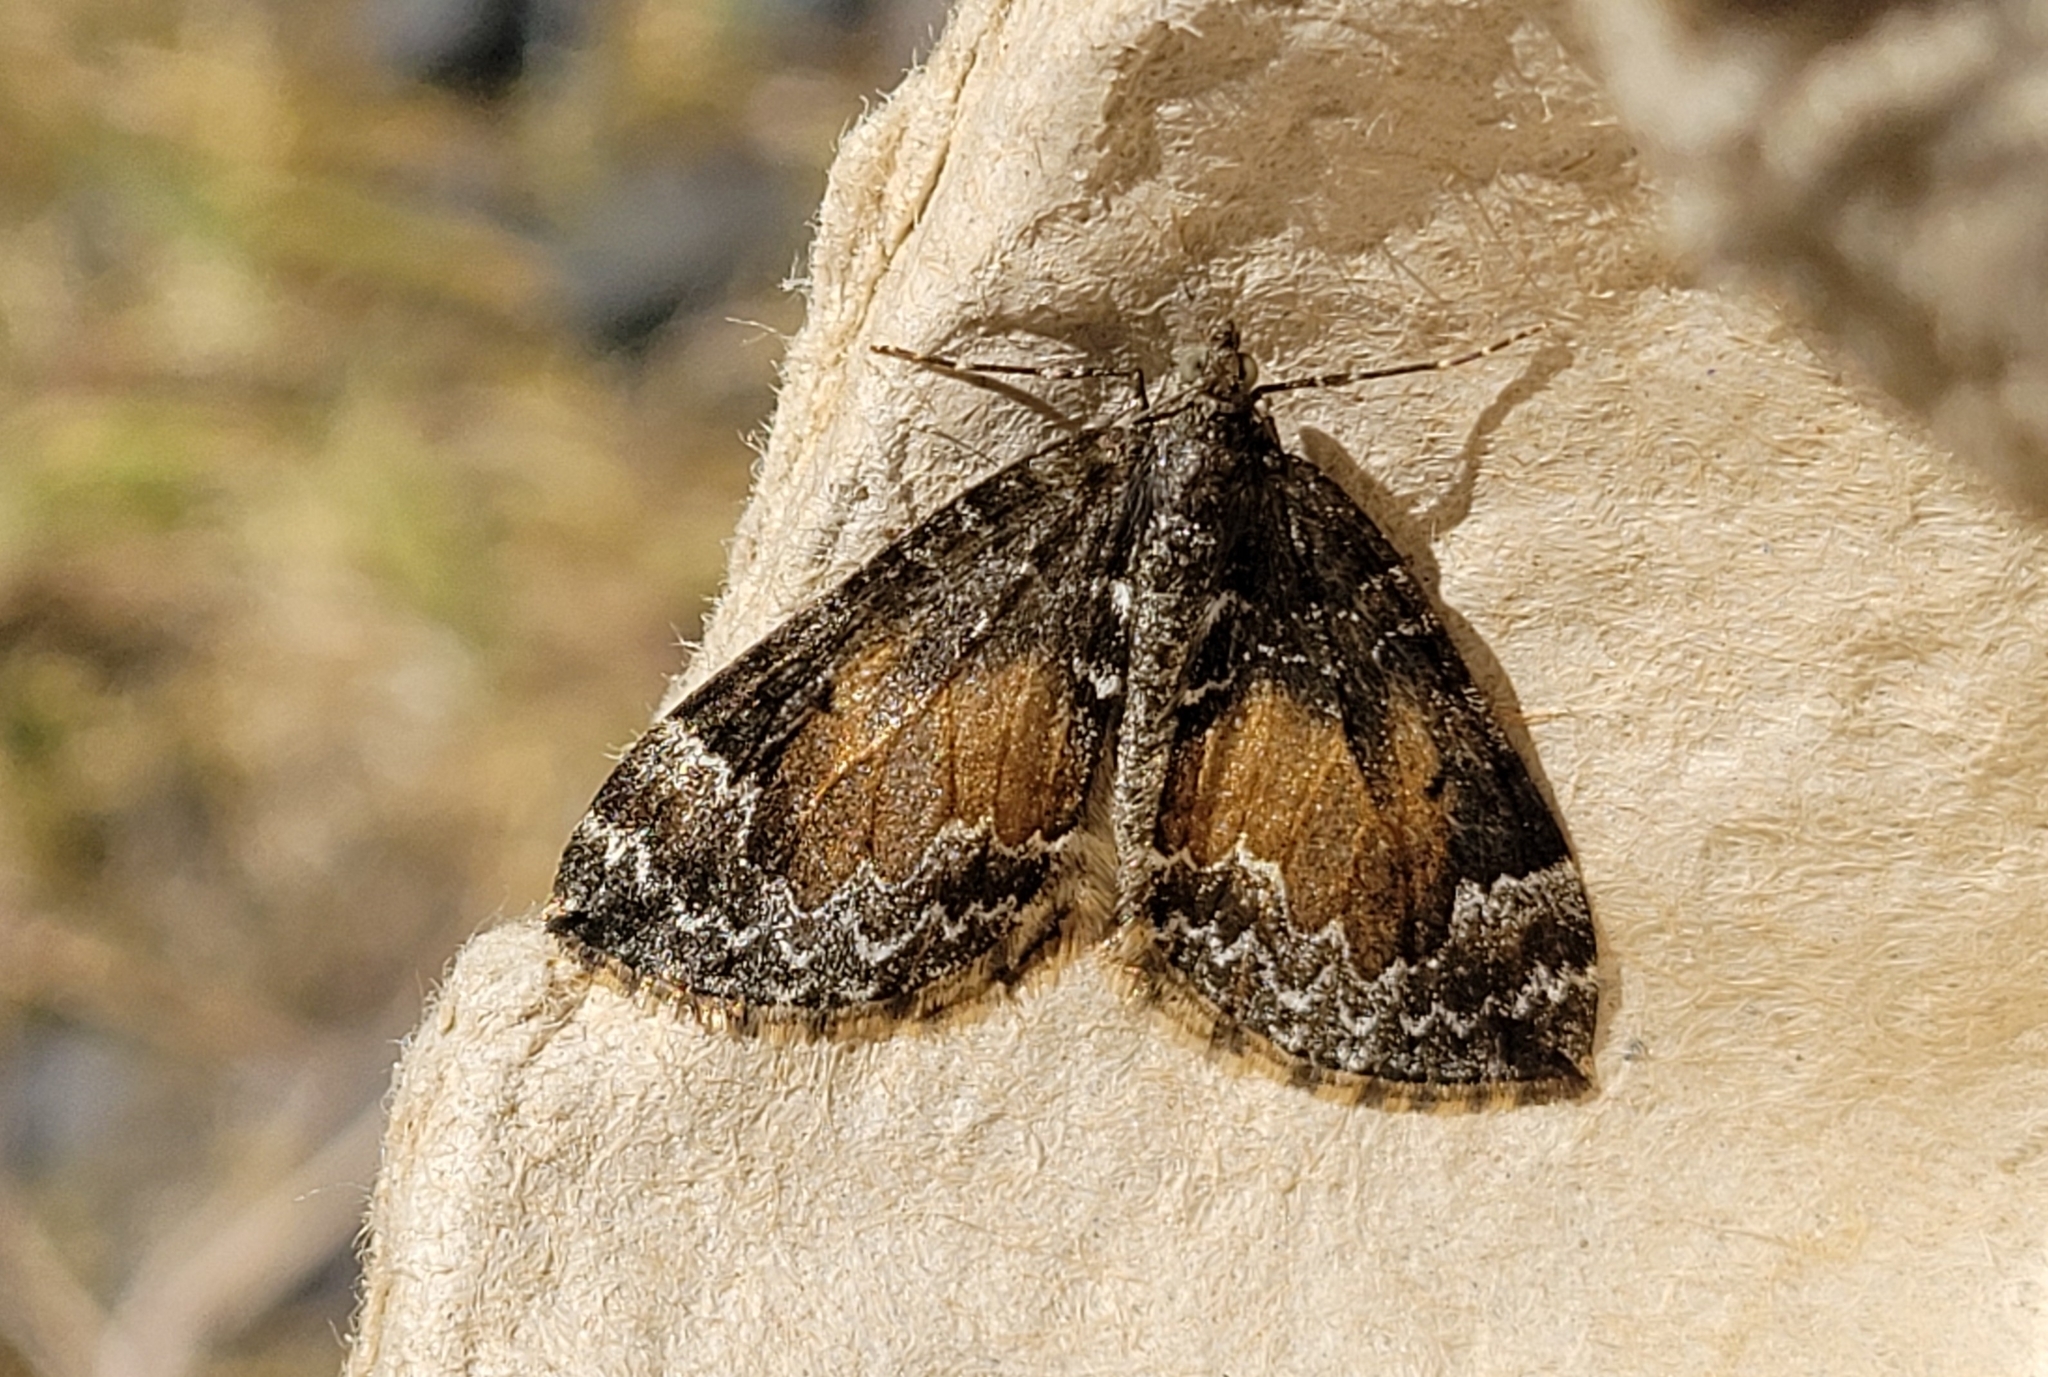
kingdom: Animalia
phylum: Arthropoda
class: Insecta
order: Lepidoptera
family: Geometridae
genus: Dysstroma
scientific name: Dysstroma truncata
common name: Common marbled carpet
